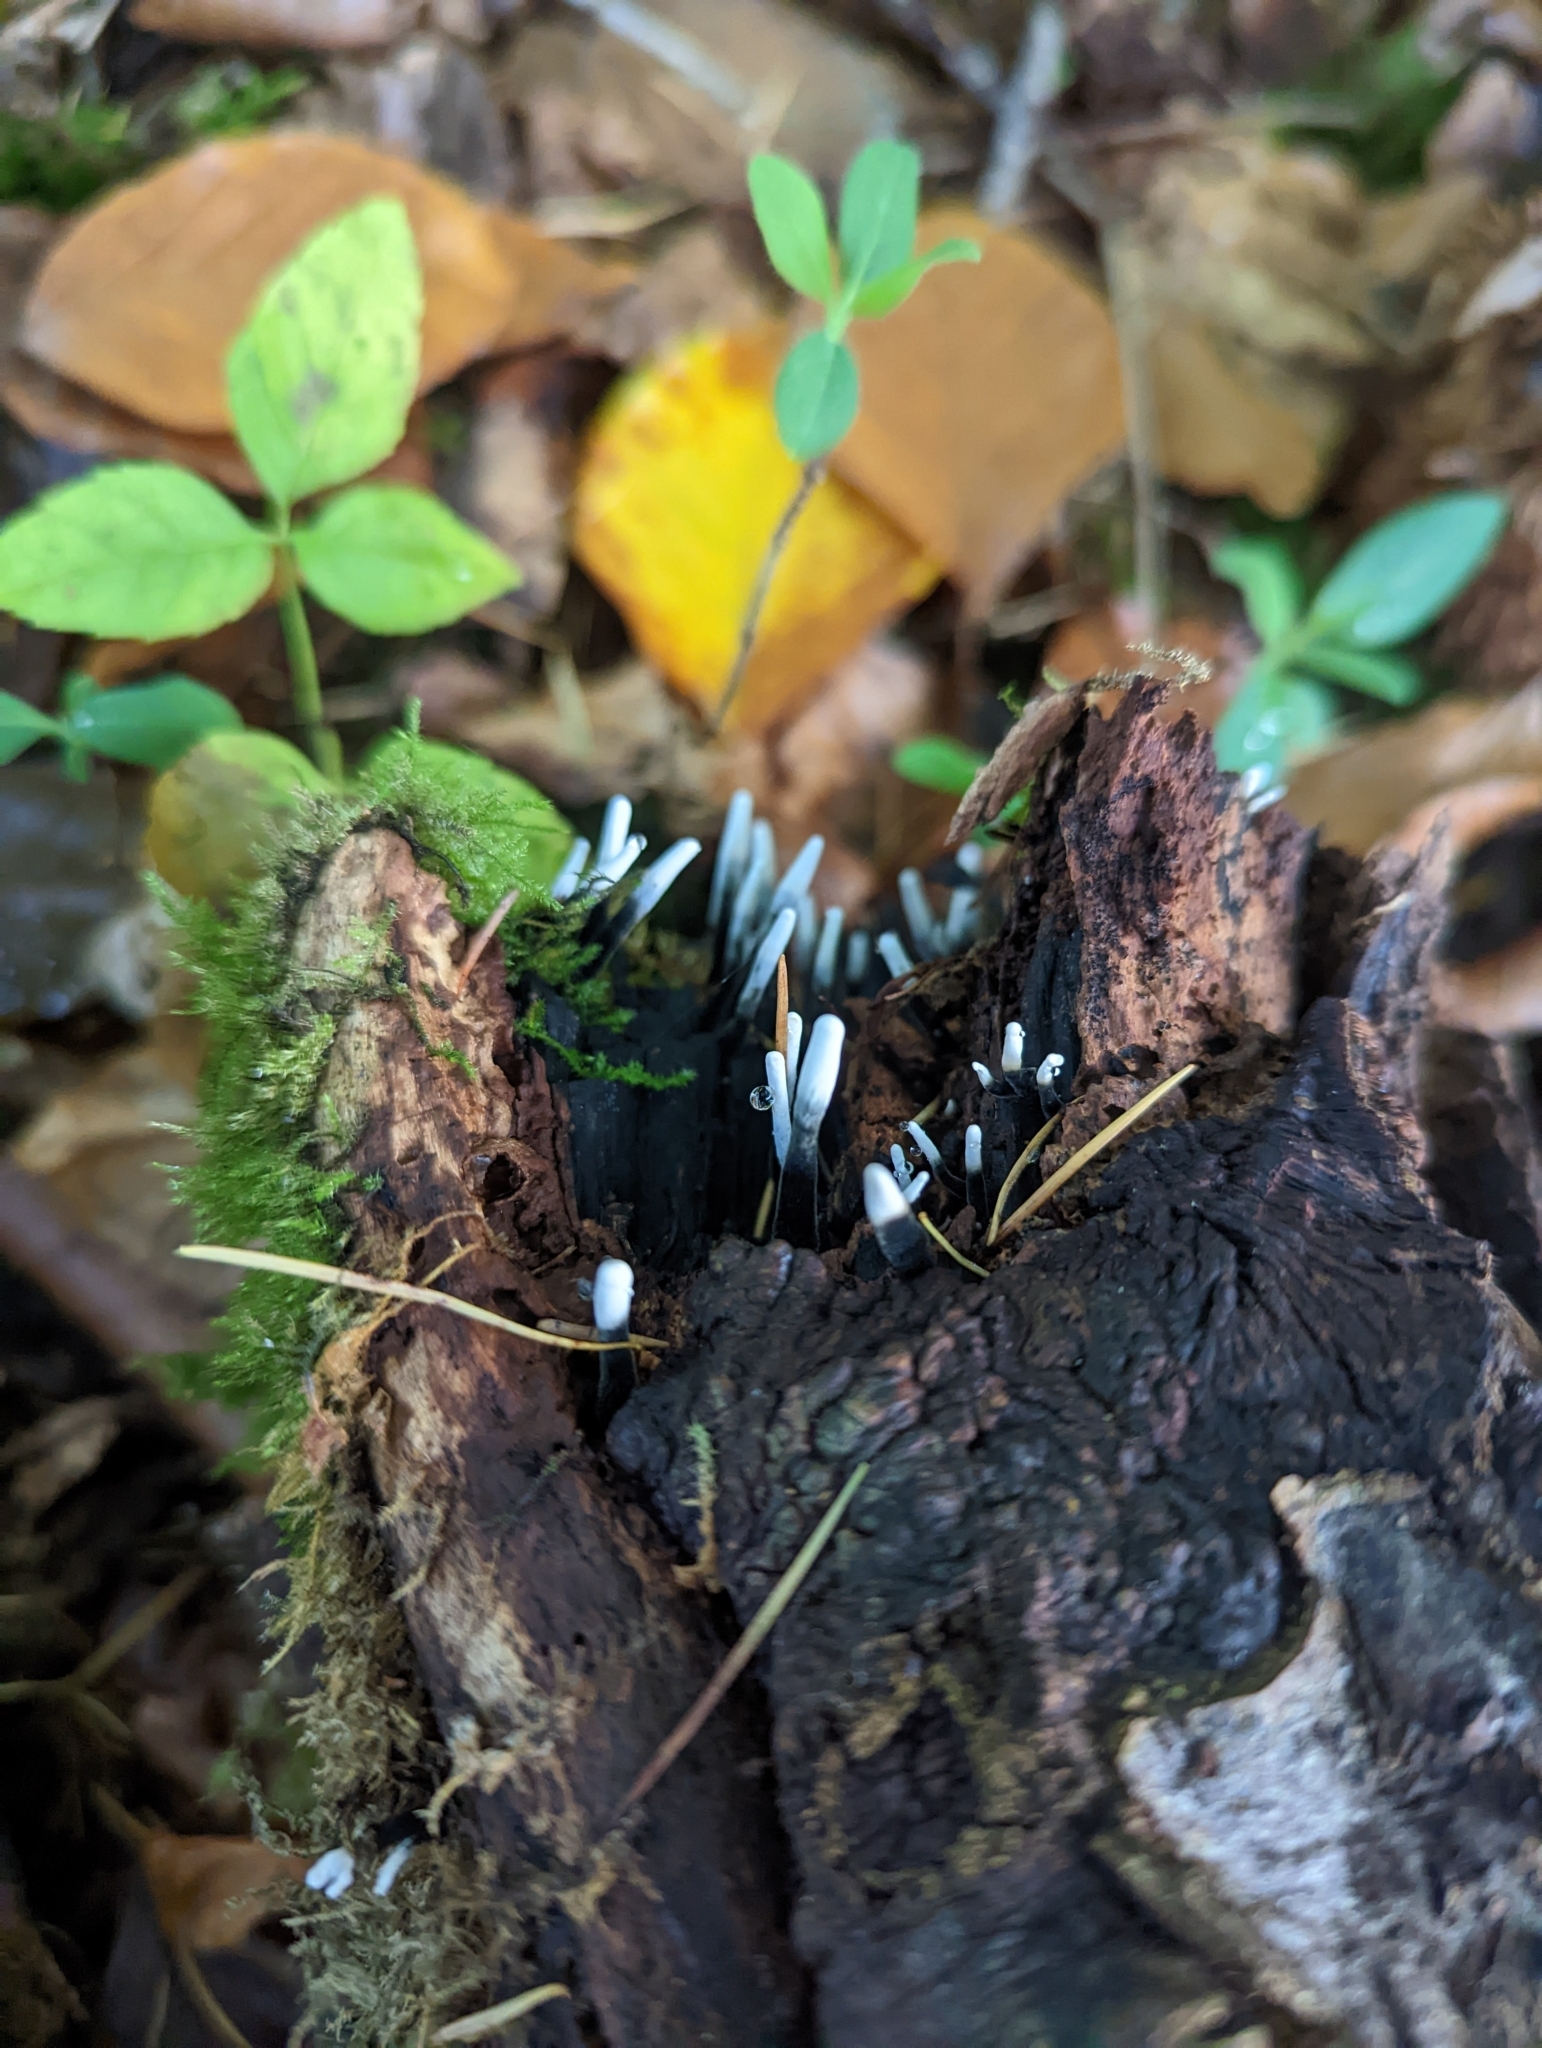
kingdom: Fungi
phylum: Ascomycota
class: Sordariomycetes
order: Xylariales
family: Xylariaceae
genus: Xylaria
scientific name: Xylaria hypoxylon
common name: Candle-snuff fungus
